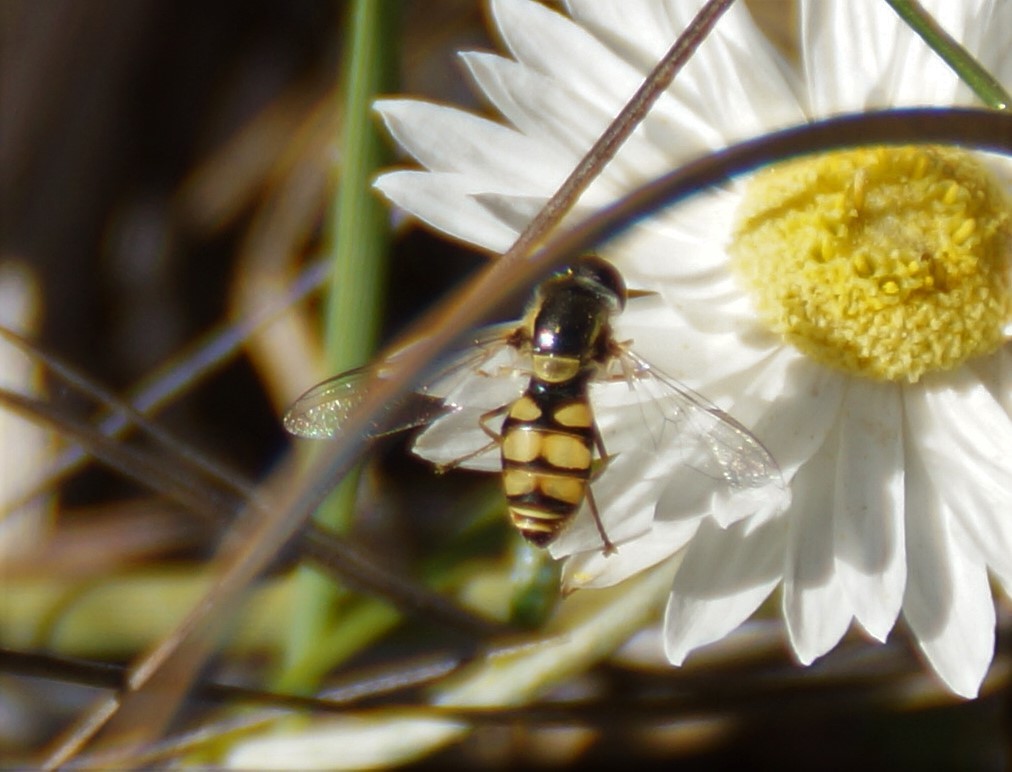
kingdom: Animalia
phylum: Arthropoda
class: Insecta
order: Diptera
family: Syrphidae
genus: Simosyrphus
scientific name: Simosyrphus grandicornis
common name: Hoverfly
